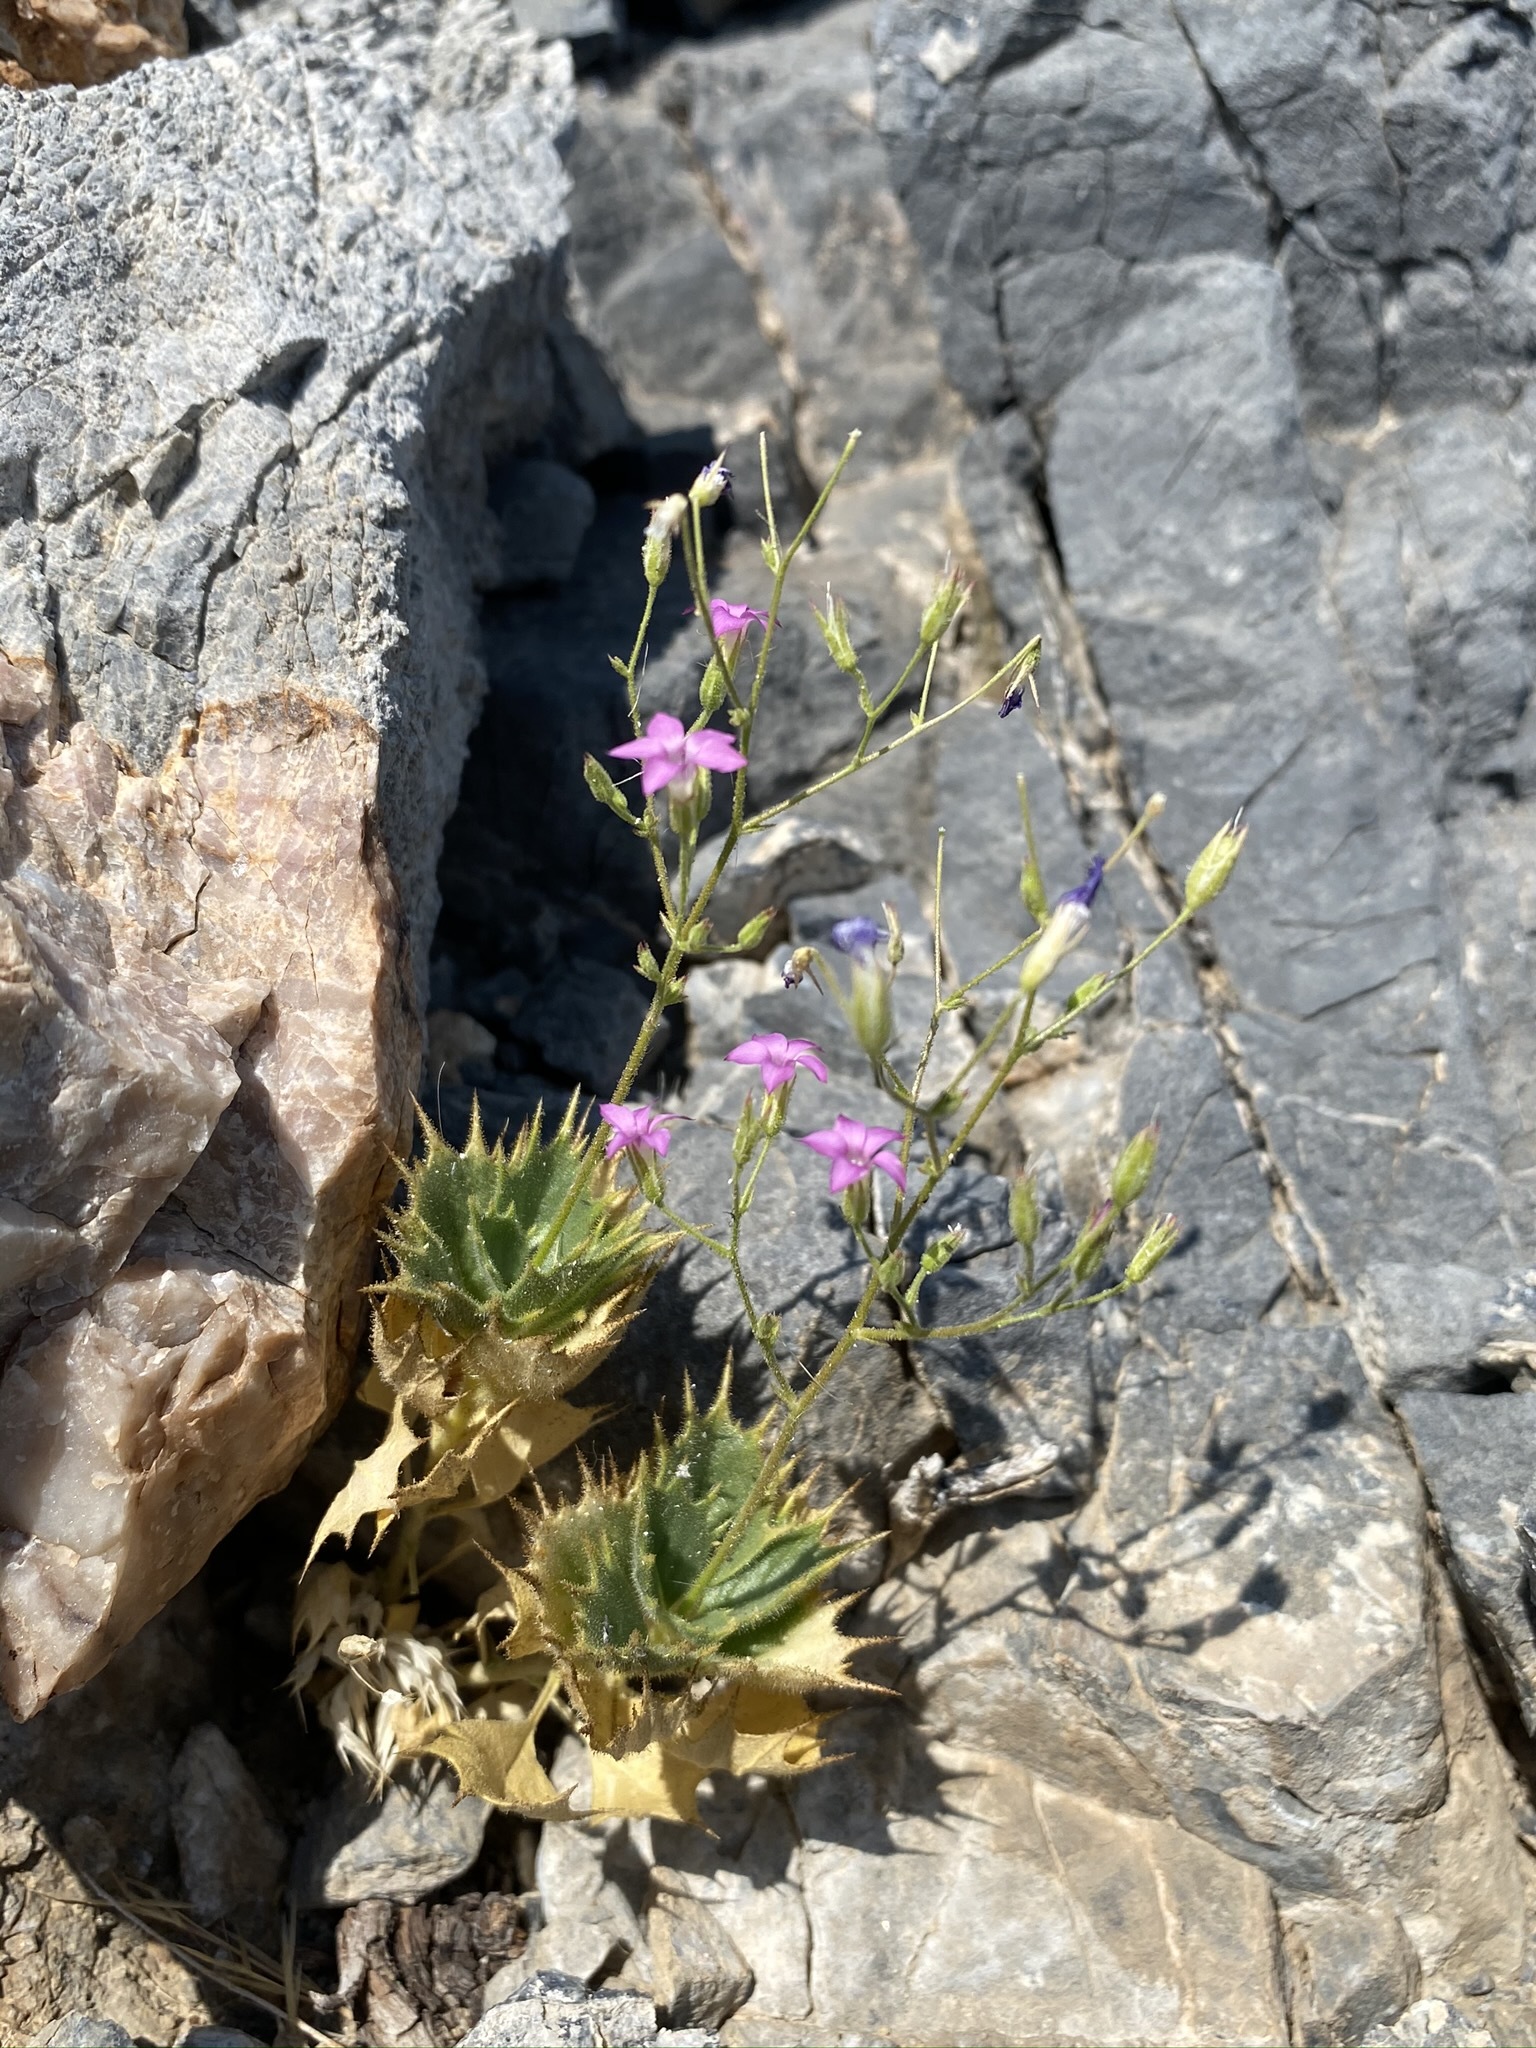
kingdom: Plantae
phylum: Tracheophyta
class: Magnoliopsida
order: Ericales
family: Polemoniaceae
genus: Aliciella
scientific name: Aliciella ripleyi
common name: Ripley's gilia
